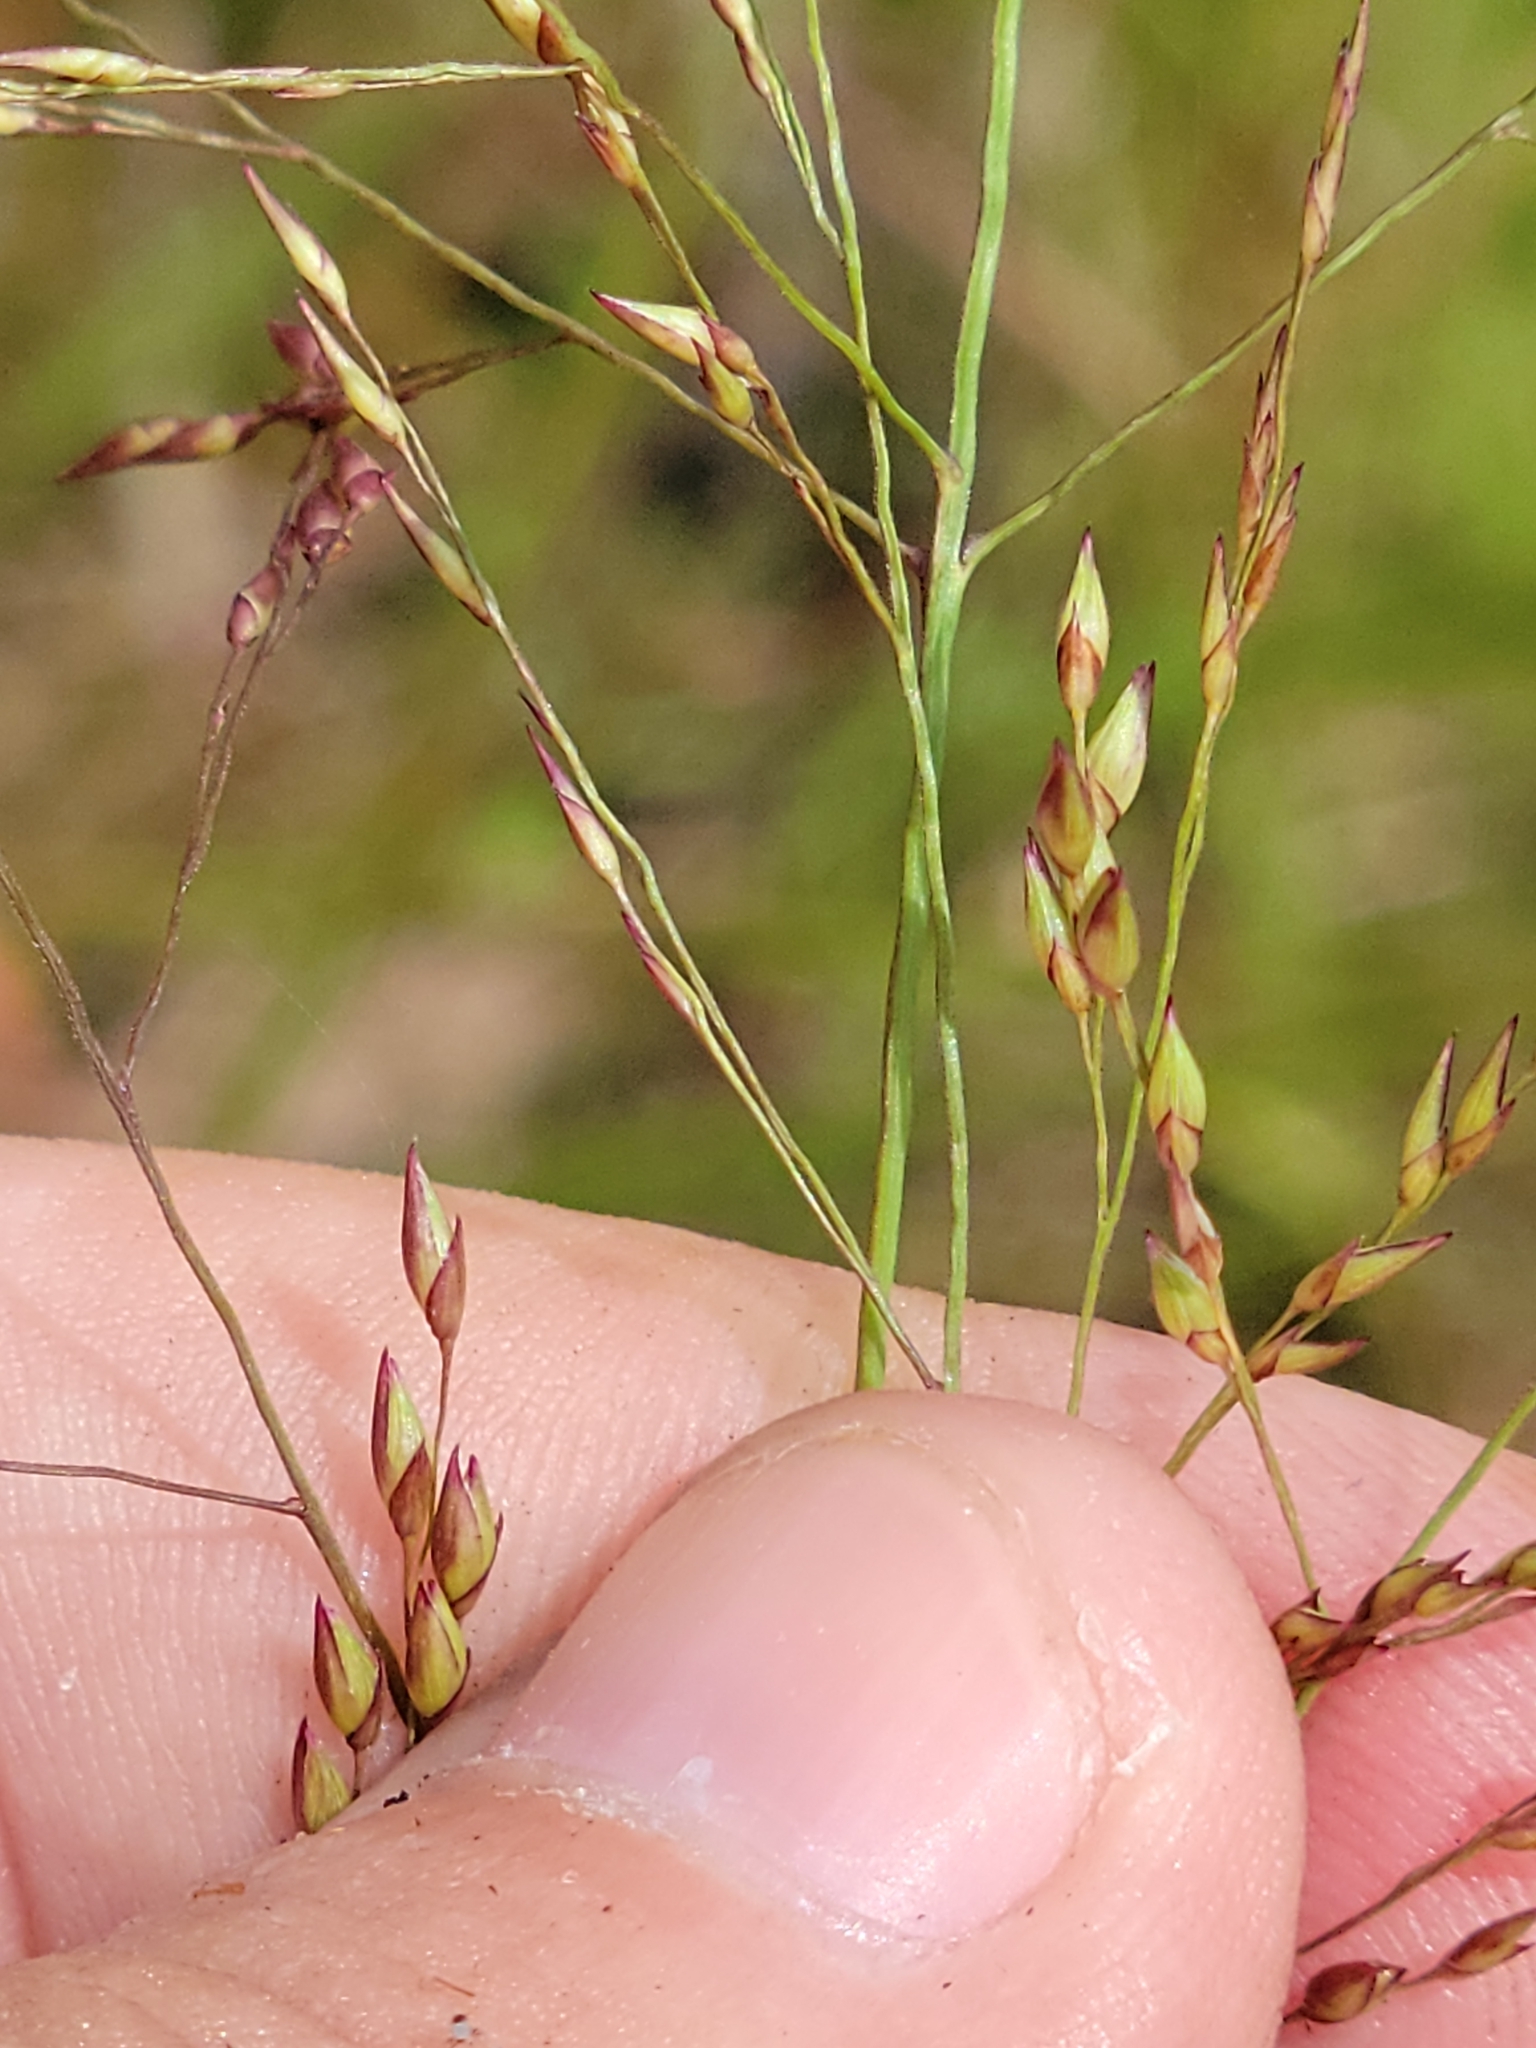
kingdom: Plantae
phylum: Tracheophyta
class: Liliopsida
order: Poales
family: Poaceae
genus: Panicum
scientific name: Panicum virgatum
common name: Switchgrass
